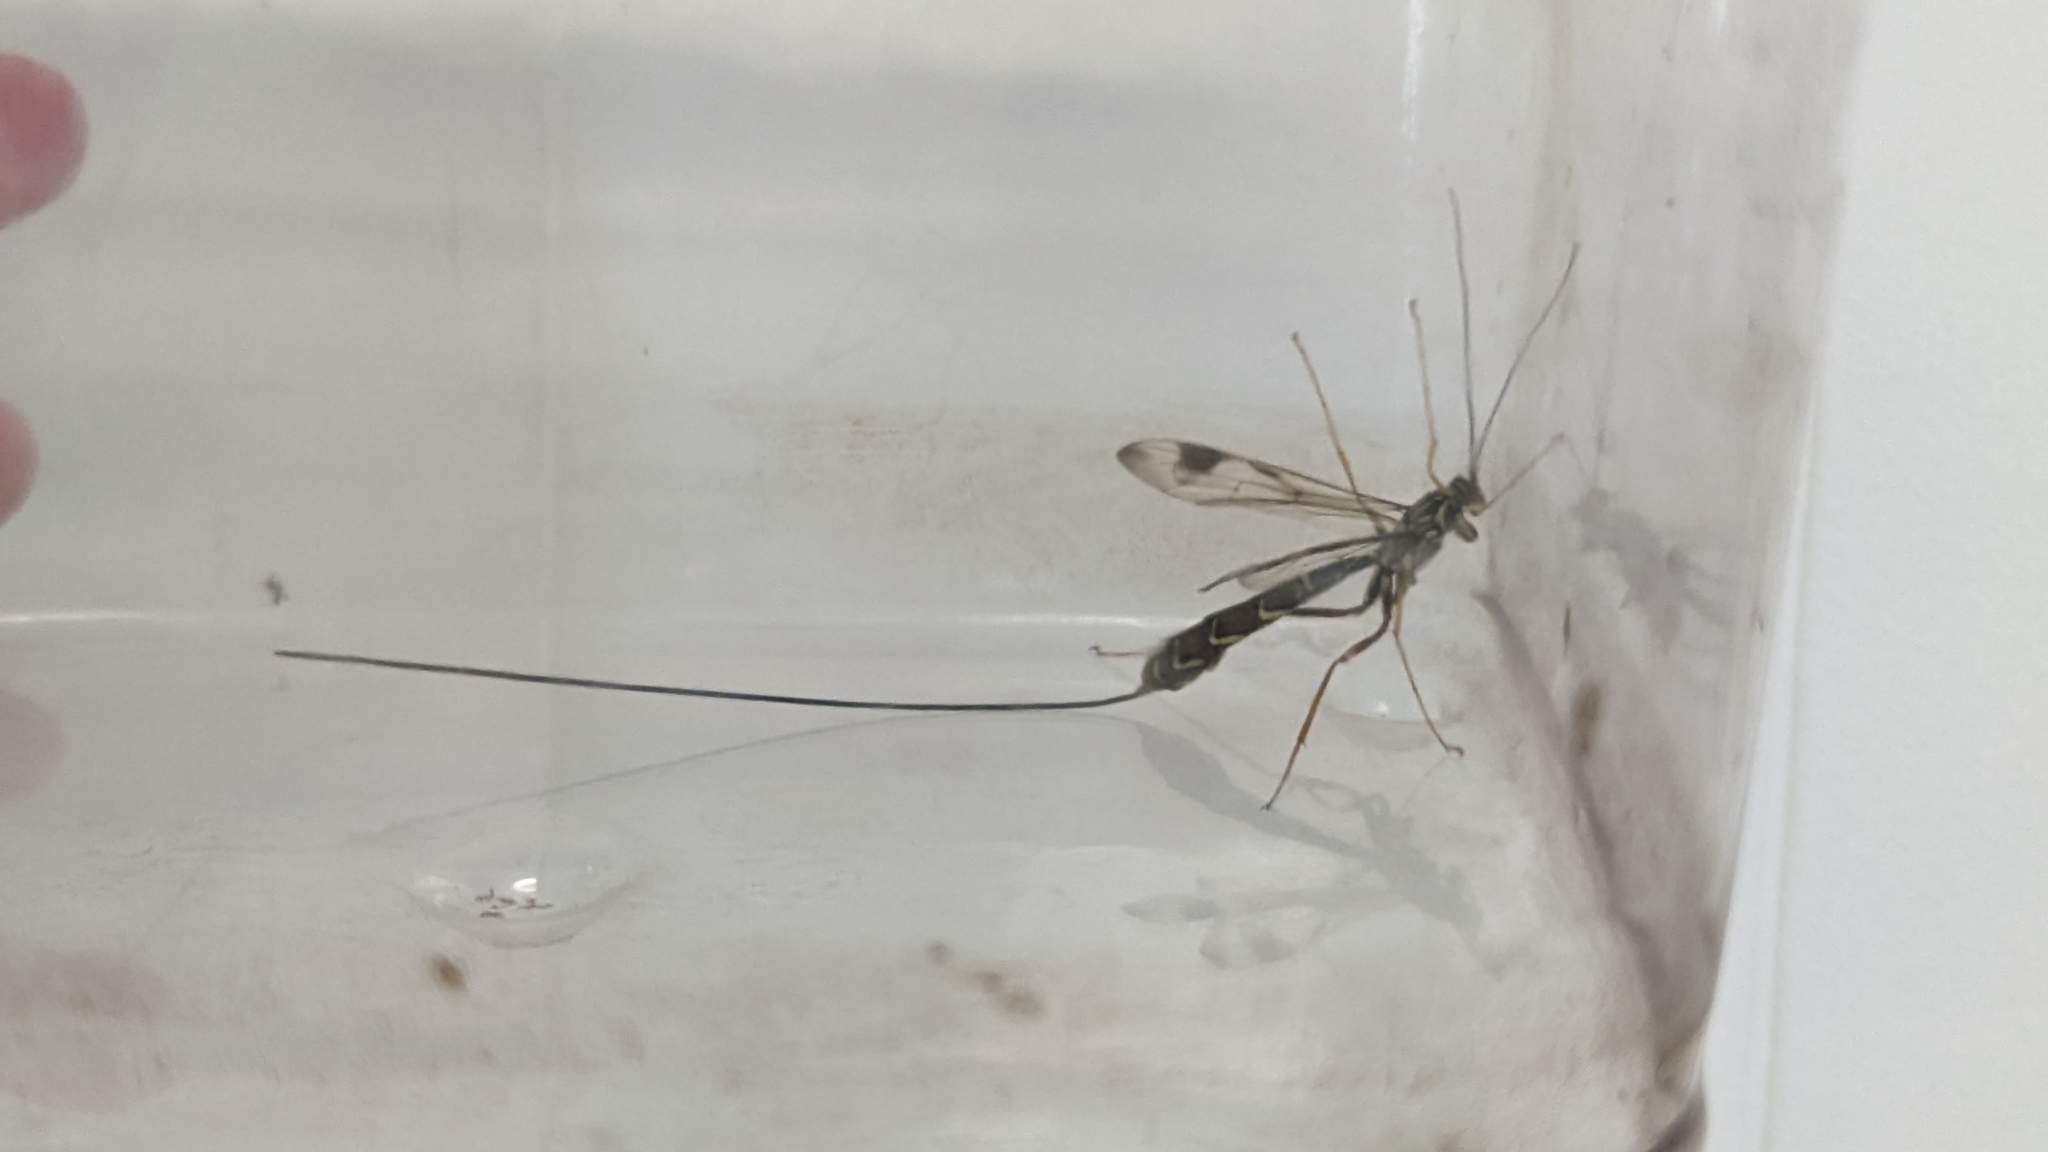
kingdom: Animalia
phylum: Arthropoda
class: Insecta
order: Hymenoptera
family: Ichneumonidae
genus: Megarhyssa
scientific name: Megarhyssa macrura
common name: Long-tailed giant ichneumonid wasp
